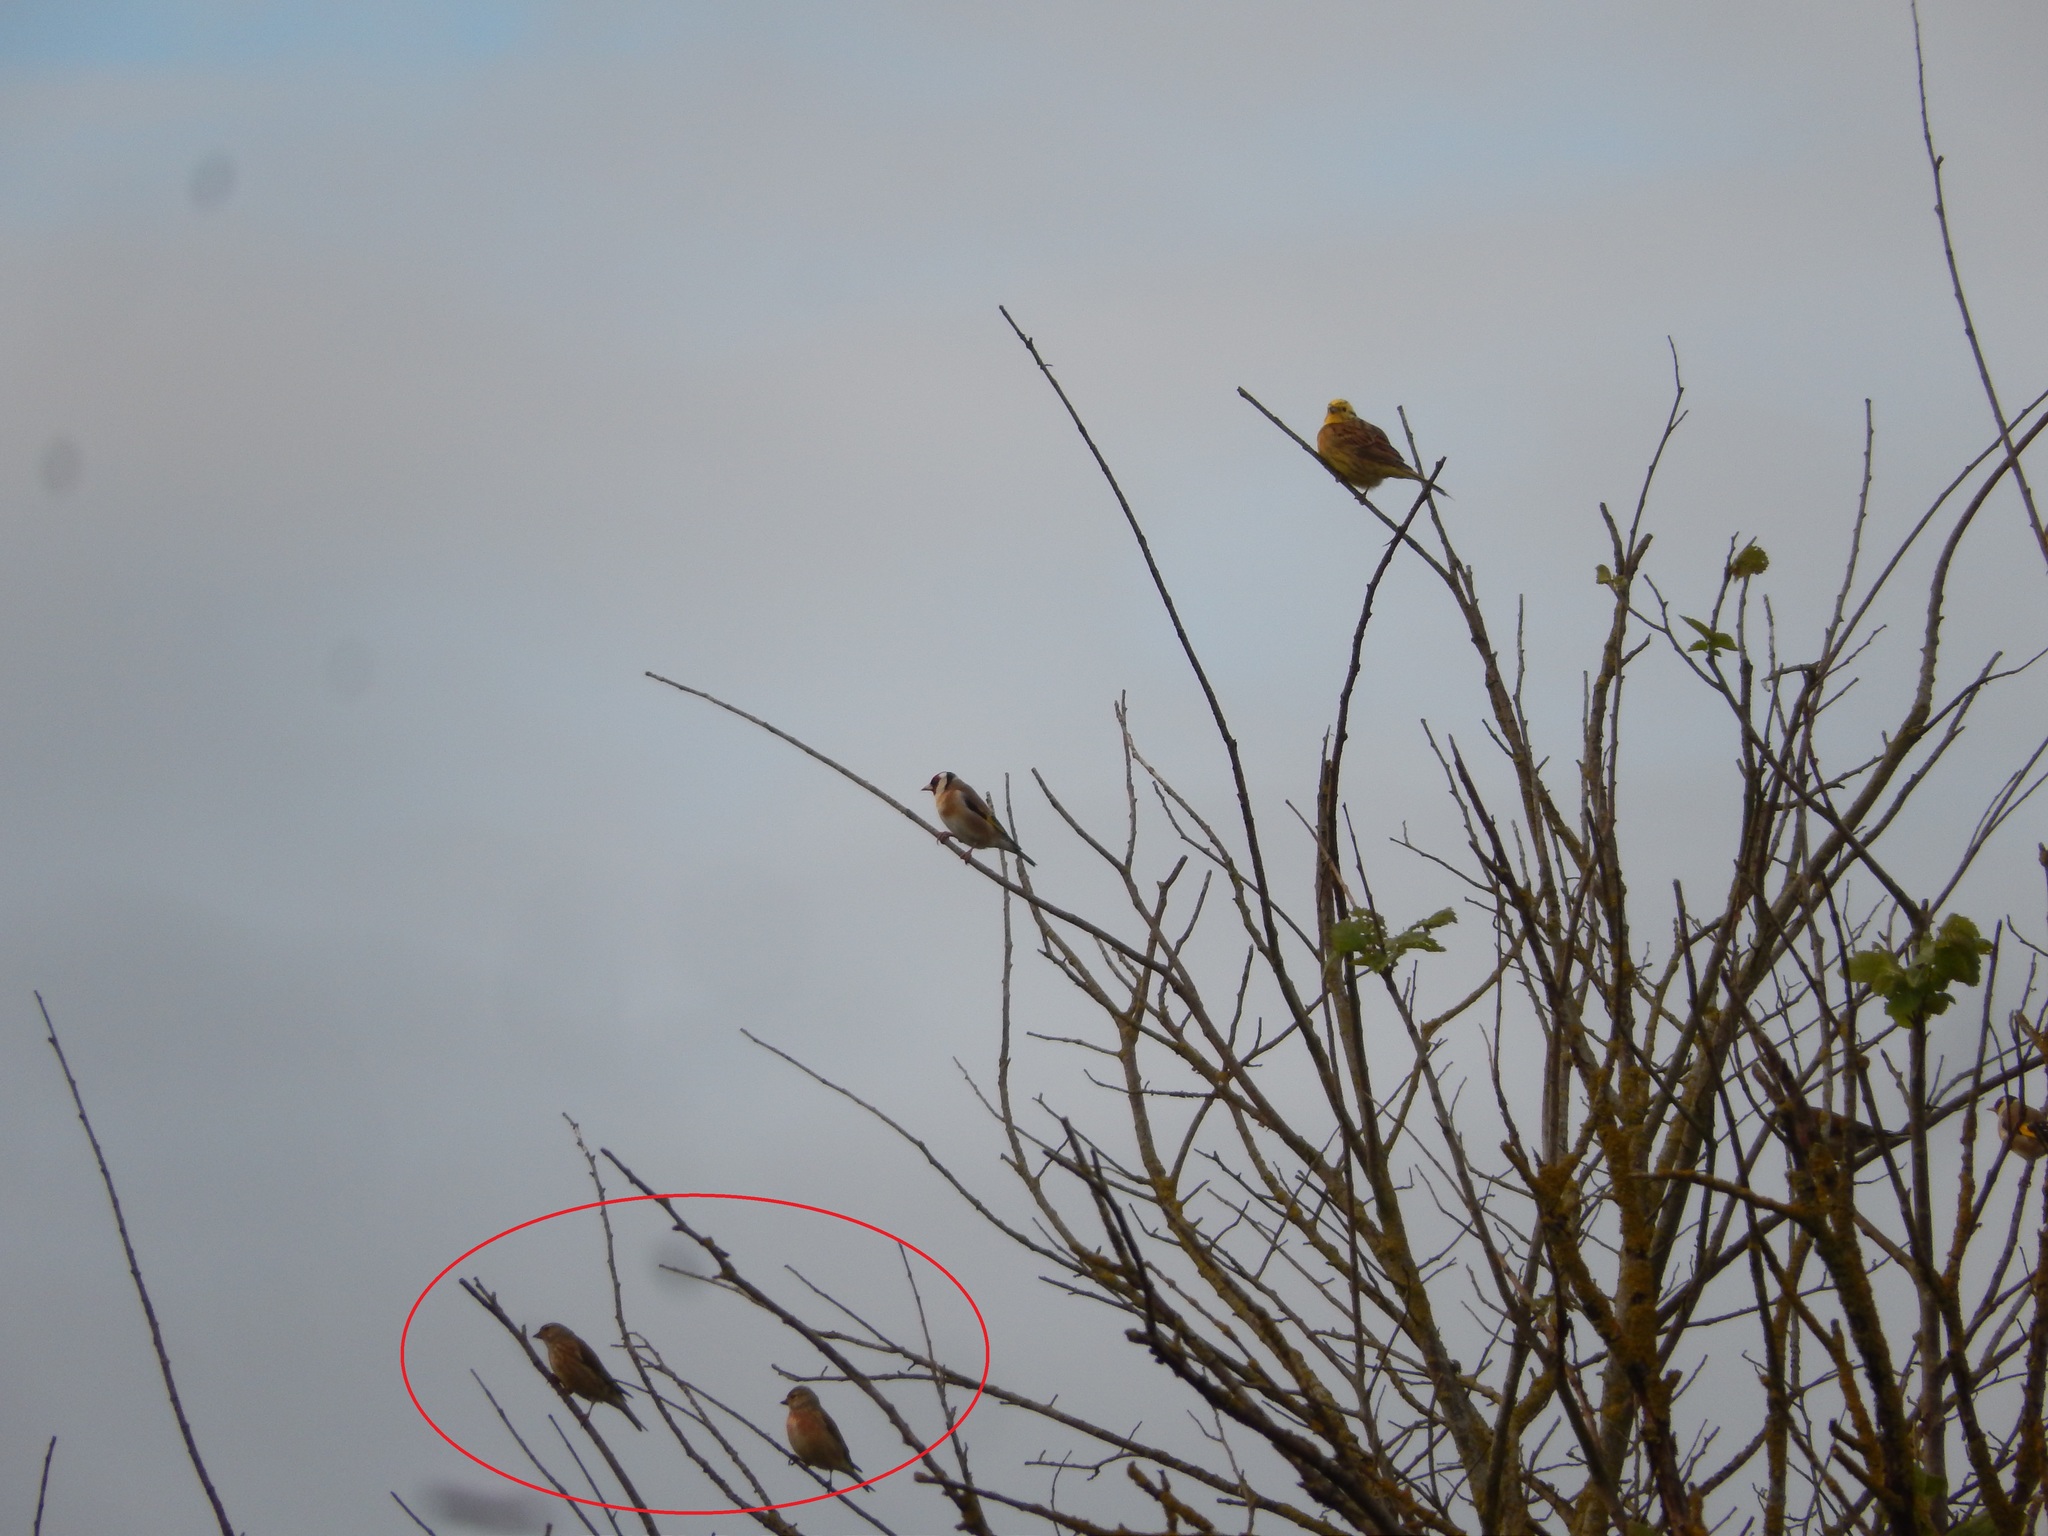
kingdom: Animalia
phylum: Chordata
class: Aves
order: Passeriformes
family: Fringillidae
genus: Linaria
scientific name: Linaria cannabina
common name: Common linnet
